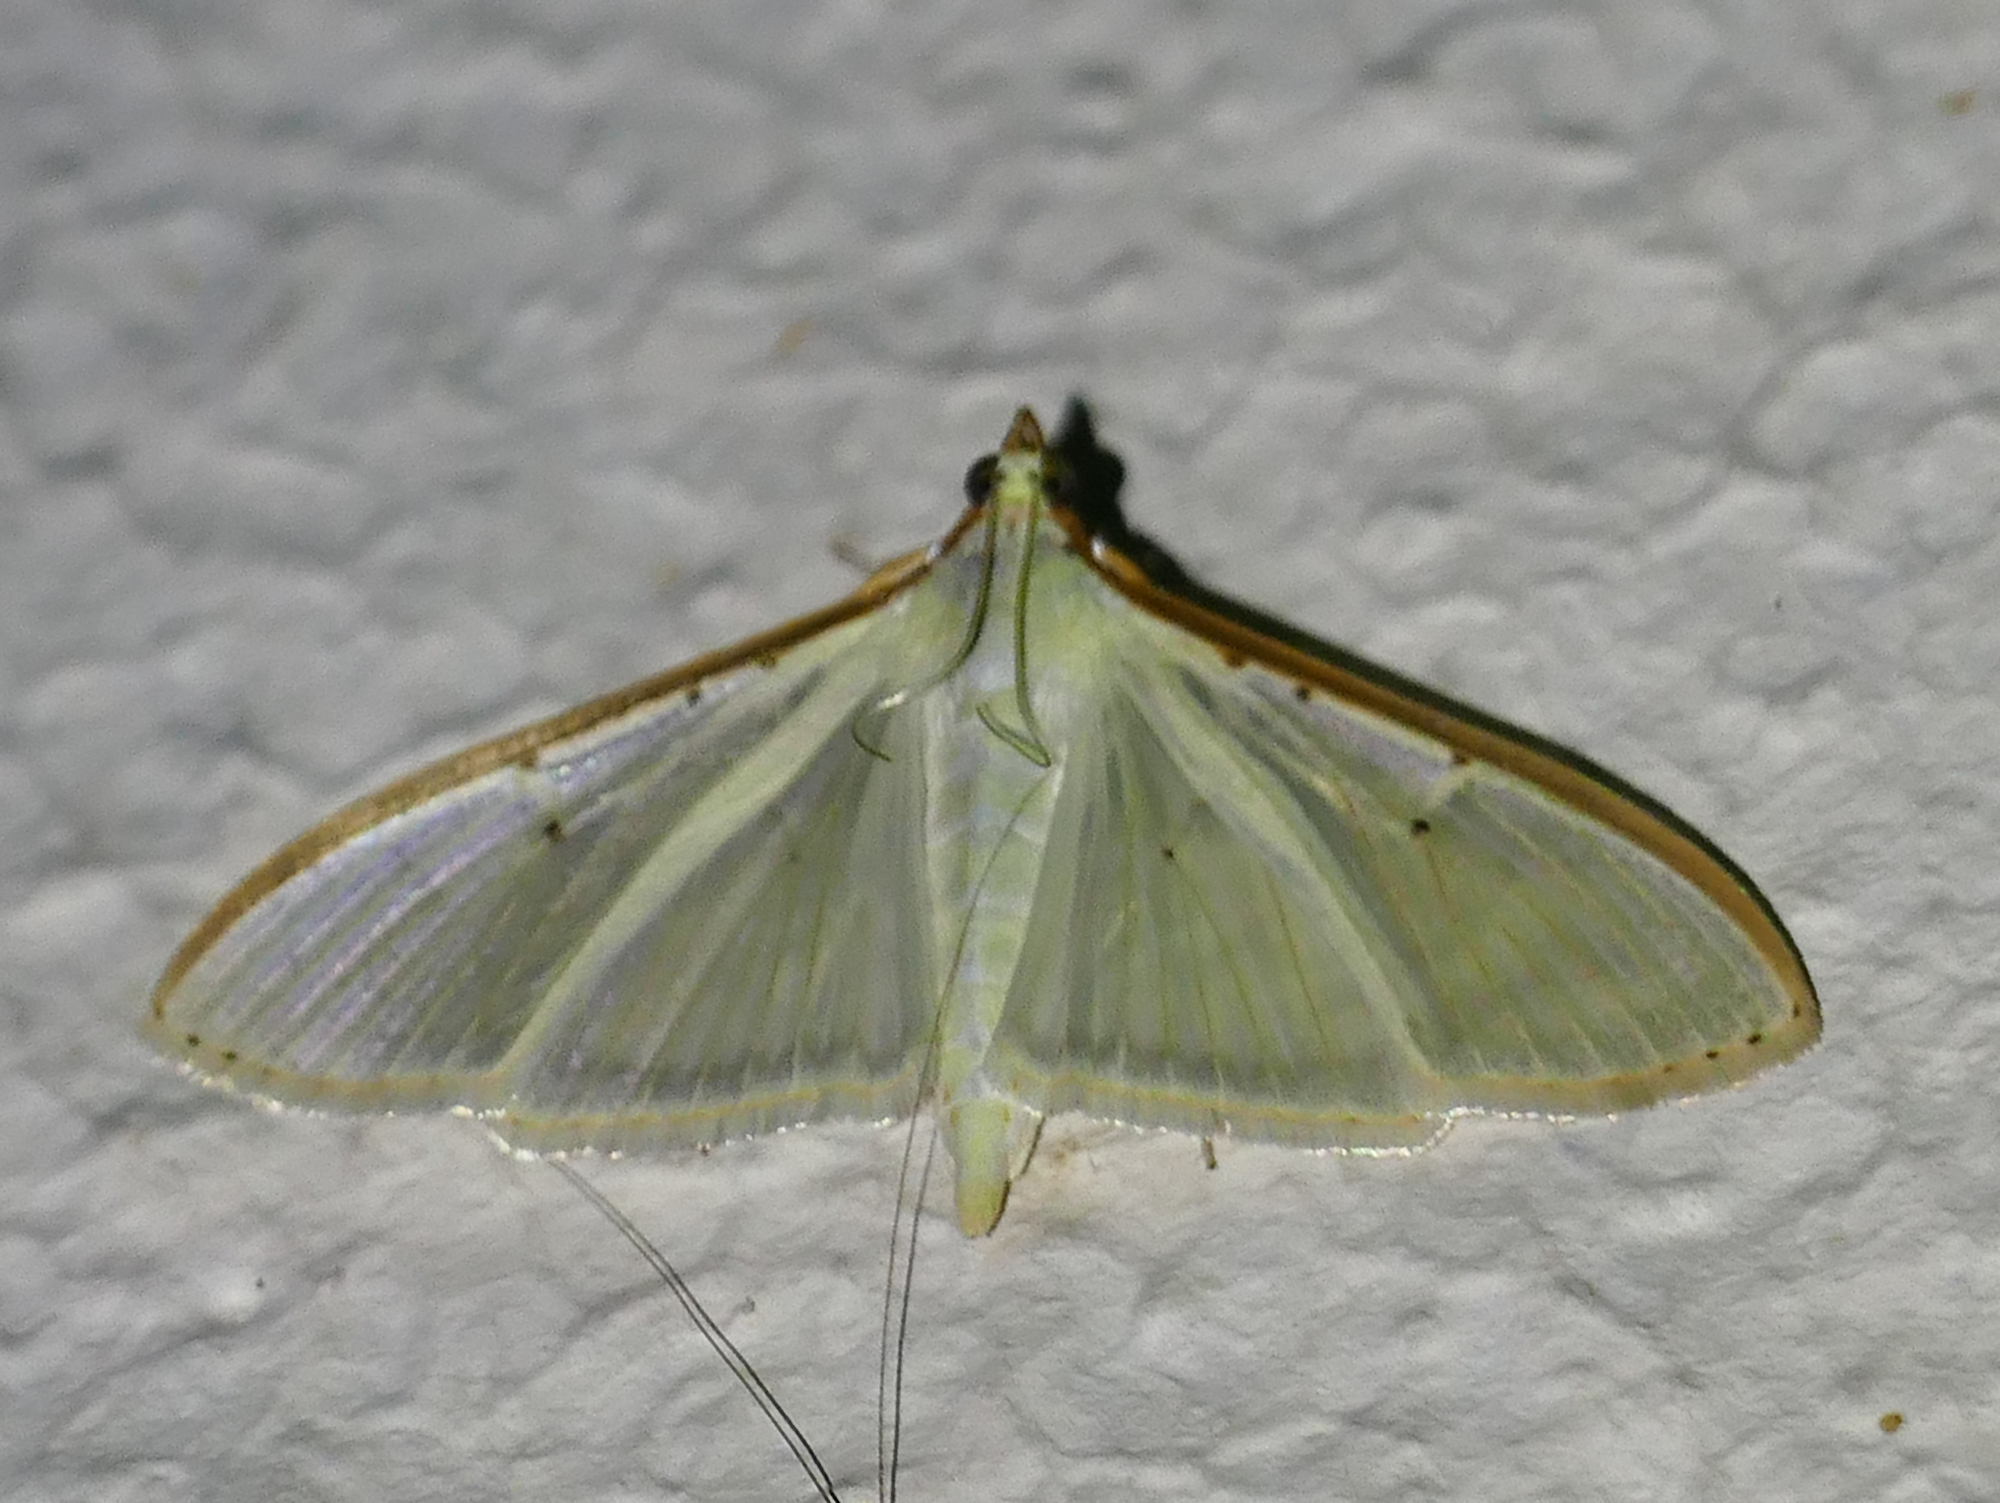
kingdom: Animalia
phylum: Arthropoda
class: Insecta
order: Lepidoptera
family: Crambidae
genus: Palpita
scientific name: Palpita quadristigmalis
